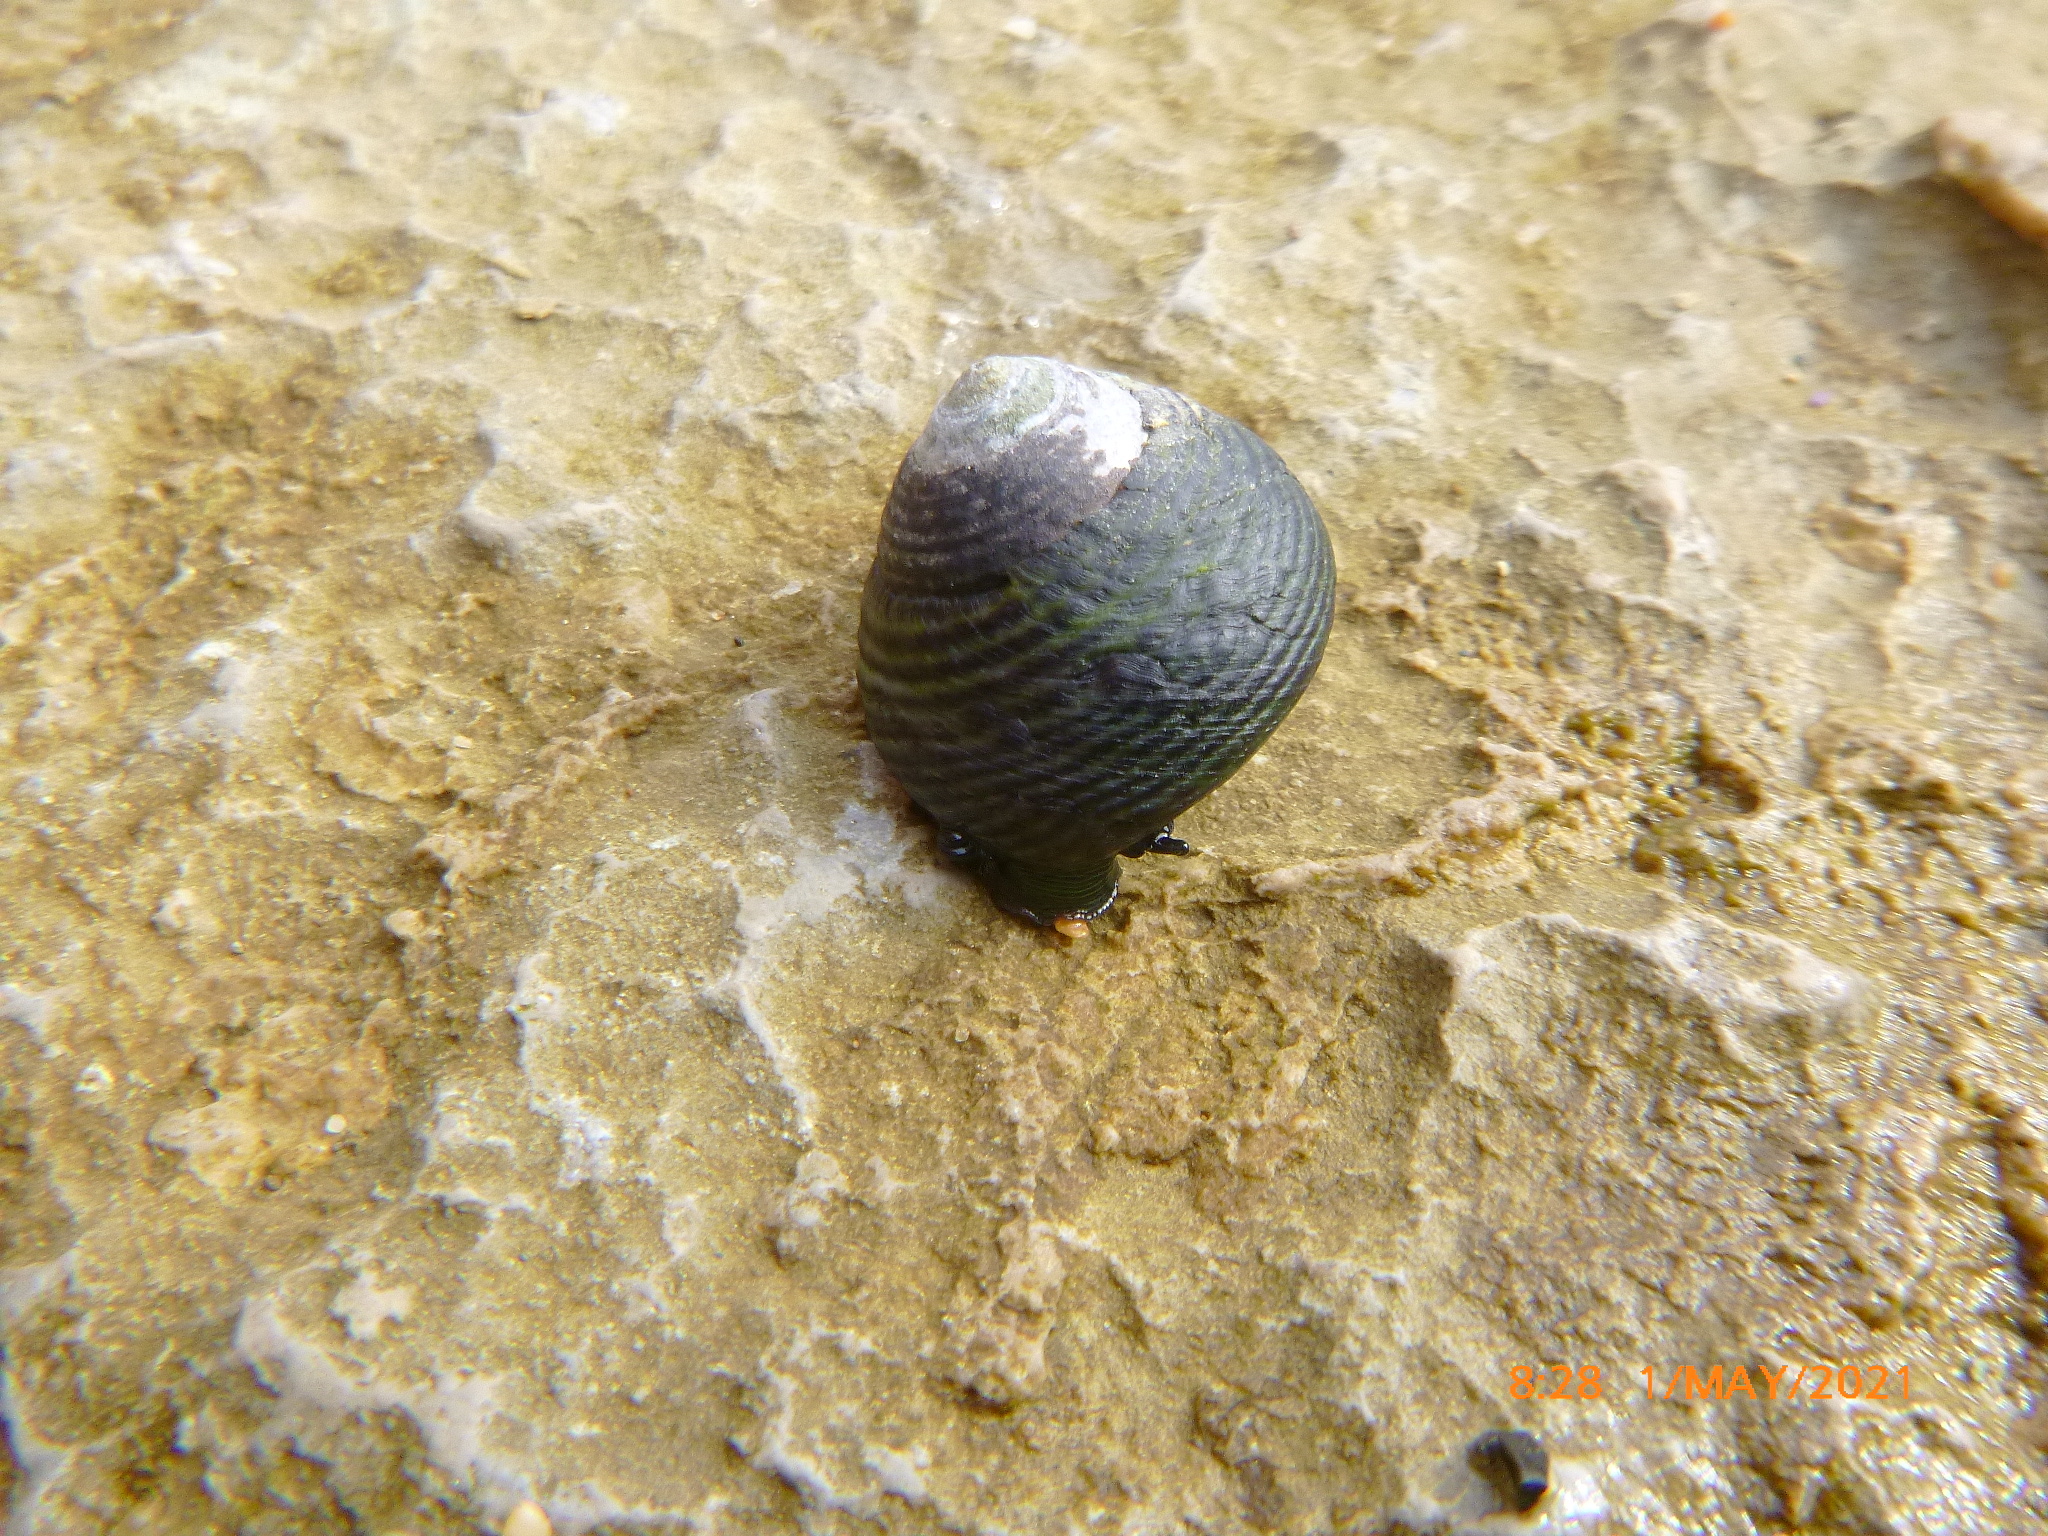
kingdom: Animalia
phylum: Mollusca
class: Gastropoda
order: Trochida
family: Tegulidae
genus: Tegula
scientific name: Tegula funebralis
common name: Black tegula
